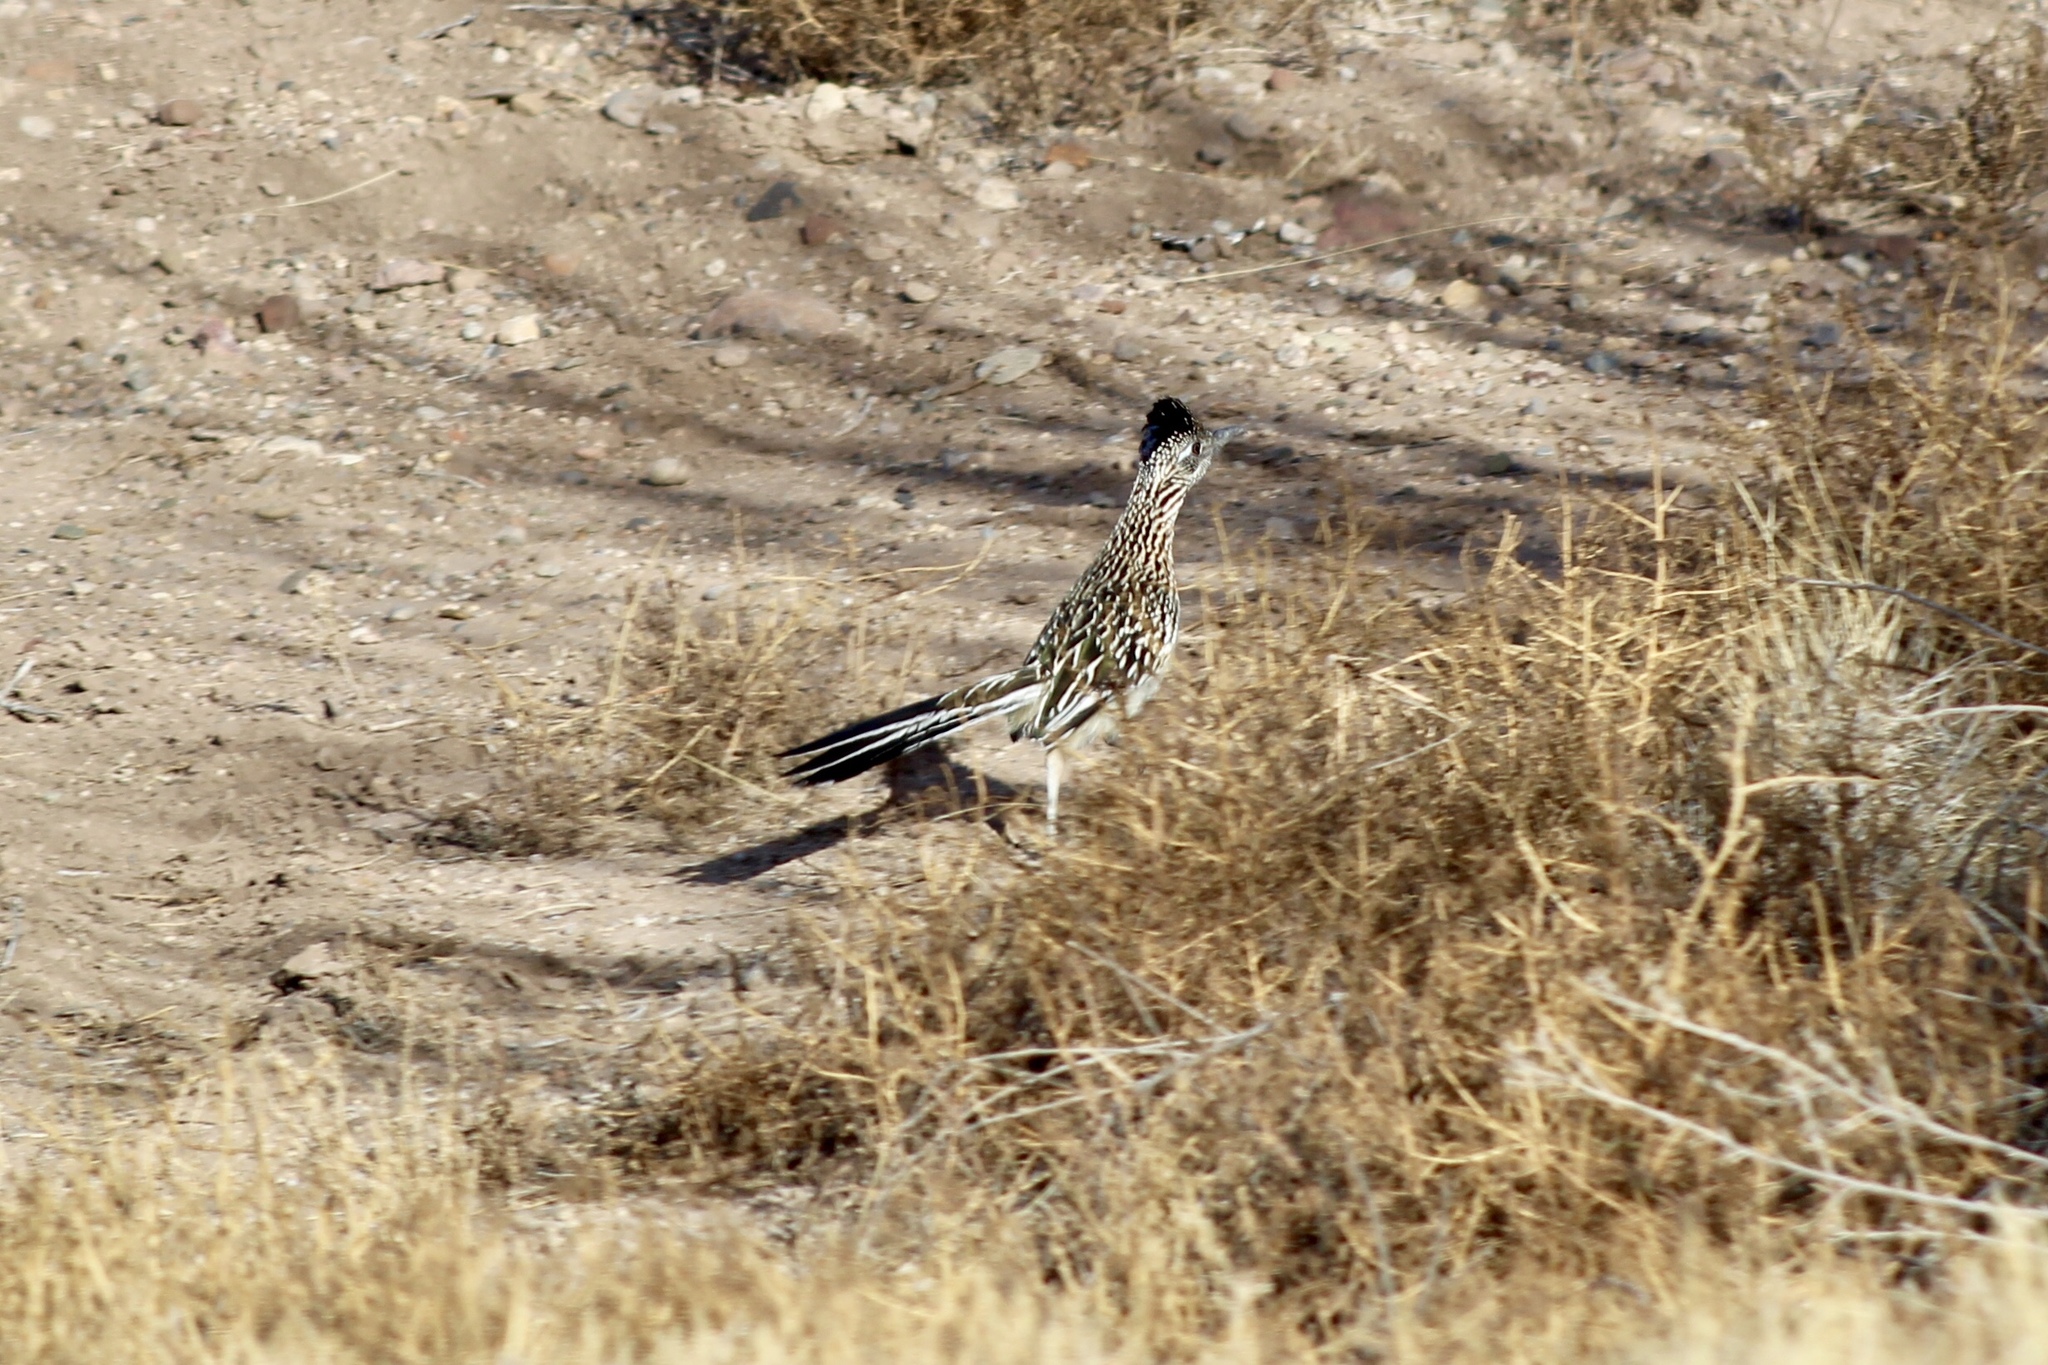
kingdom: Animalia
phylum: Chordata
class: Aves
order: Cuculiformes
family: Cuculidae
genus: Geococcyx
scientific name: Geococcyx californianus
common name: Greater roadrunner
